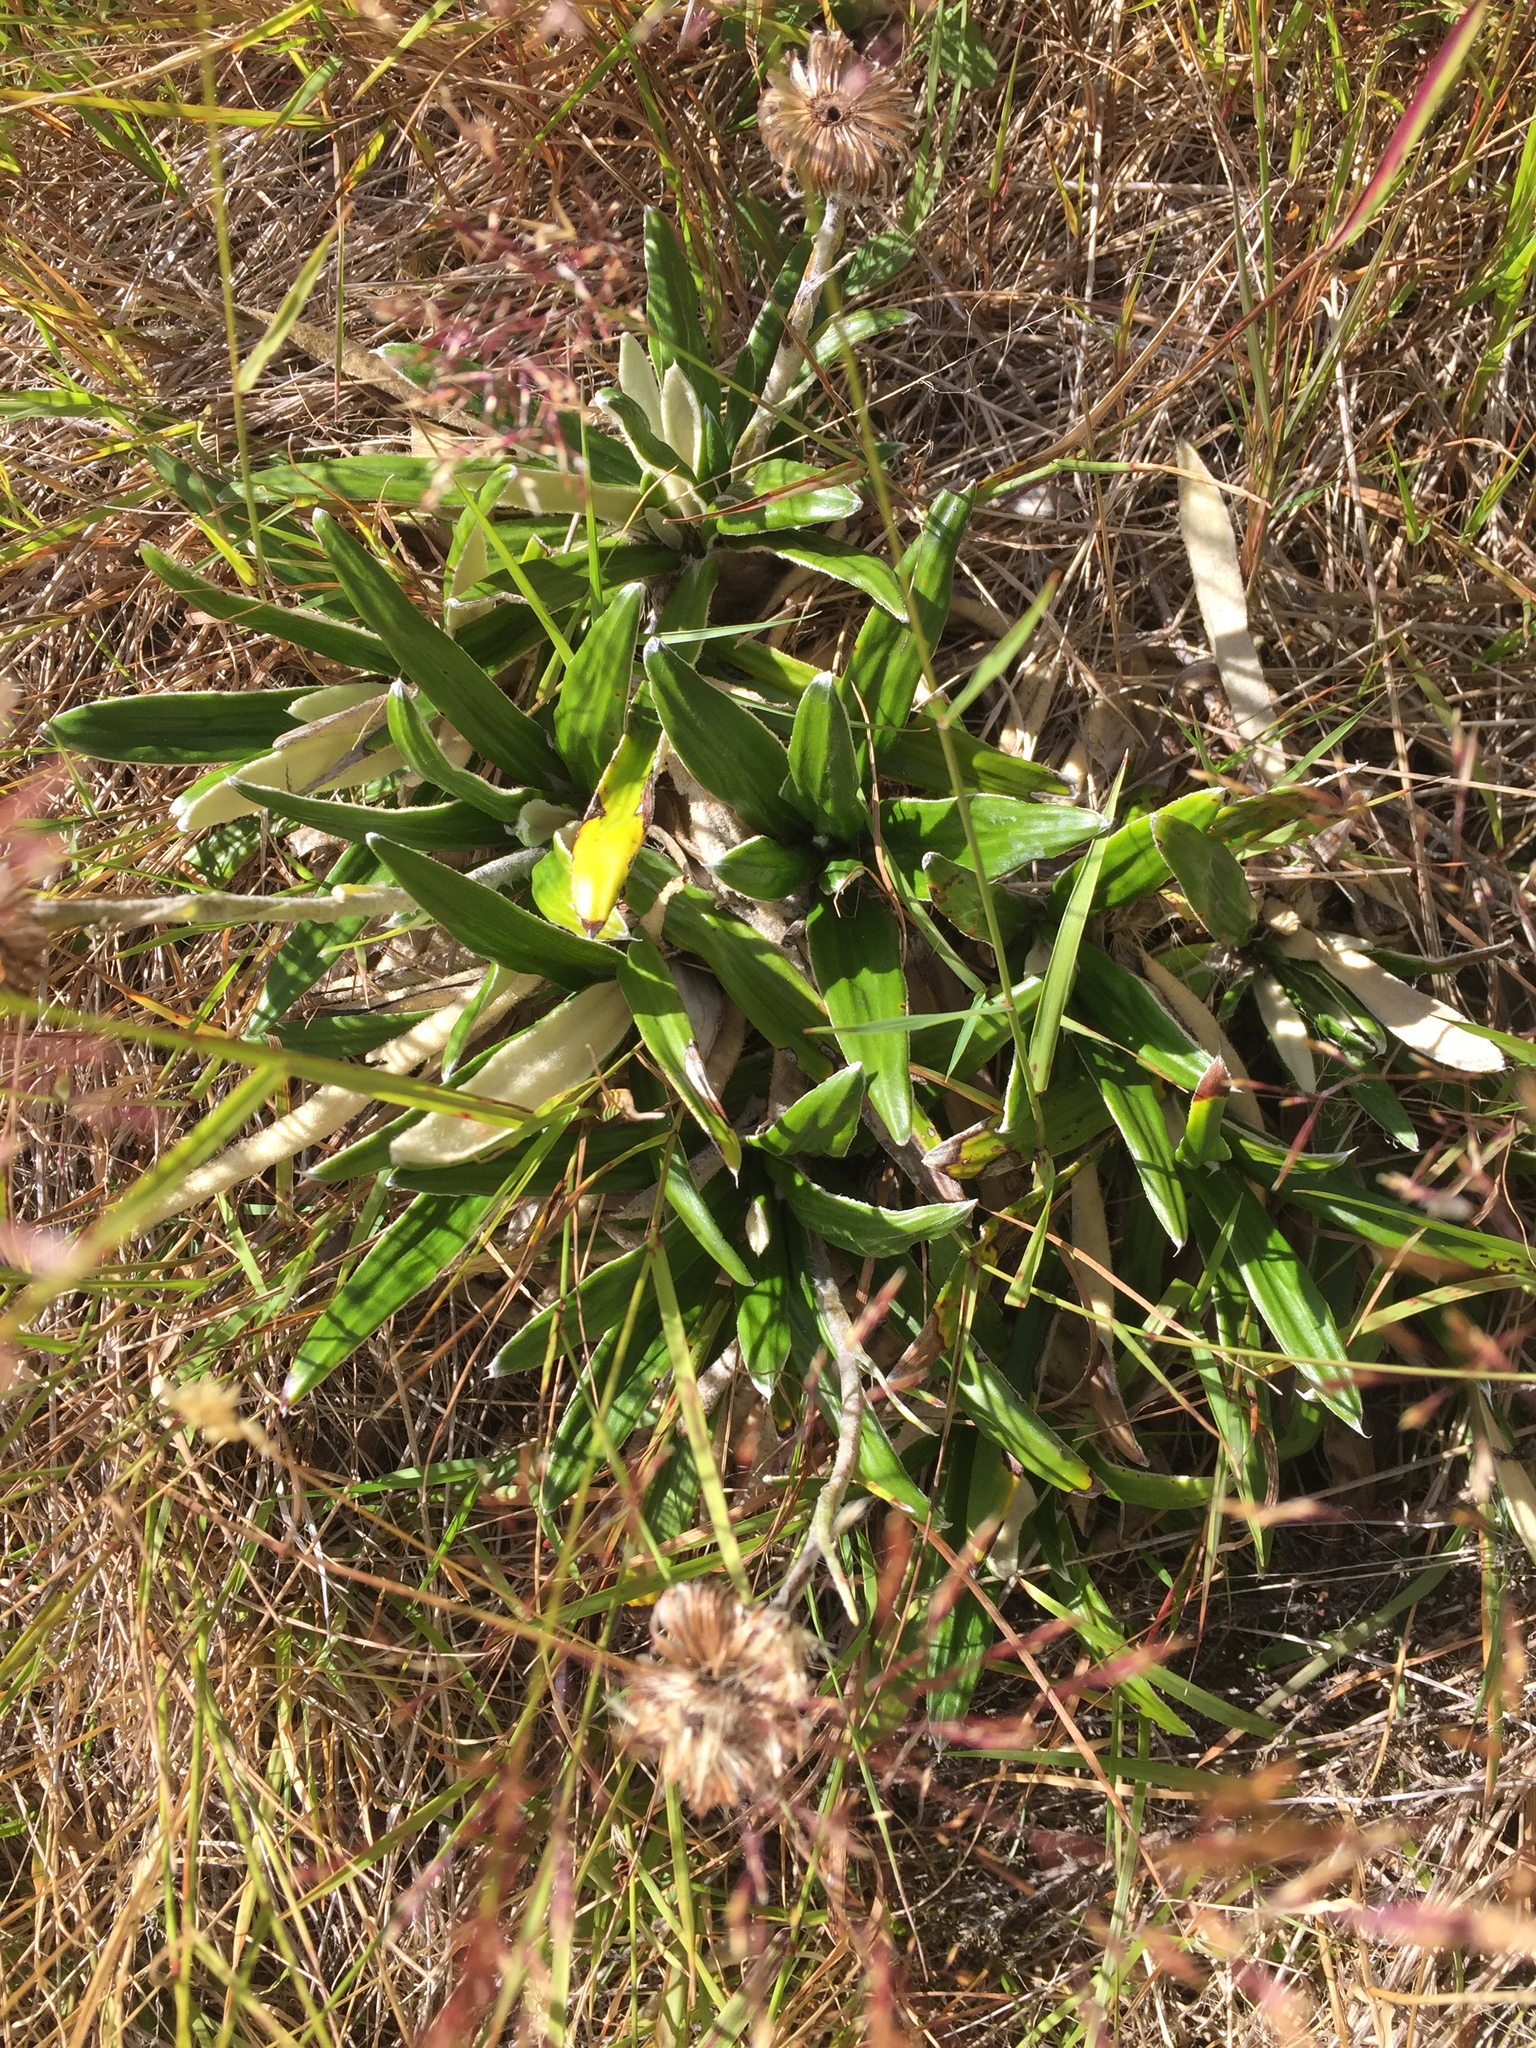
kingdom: Plantae
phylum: Tracheophyta
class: Magnoliopsida
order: Asterales
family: Asteraceae
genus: Celmisia
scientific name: Celmisia spectabilis
